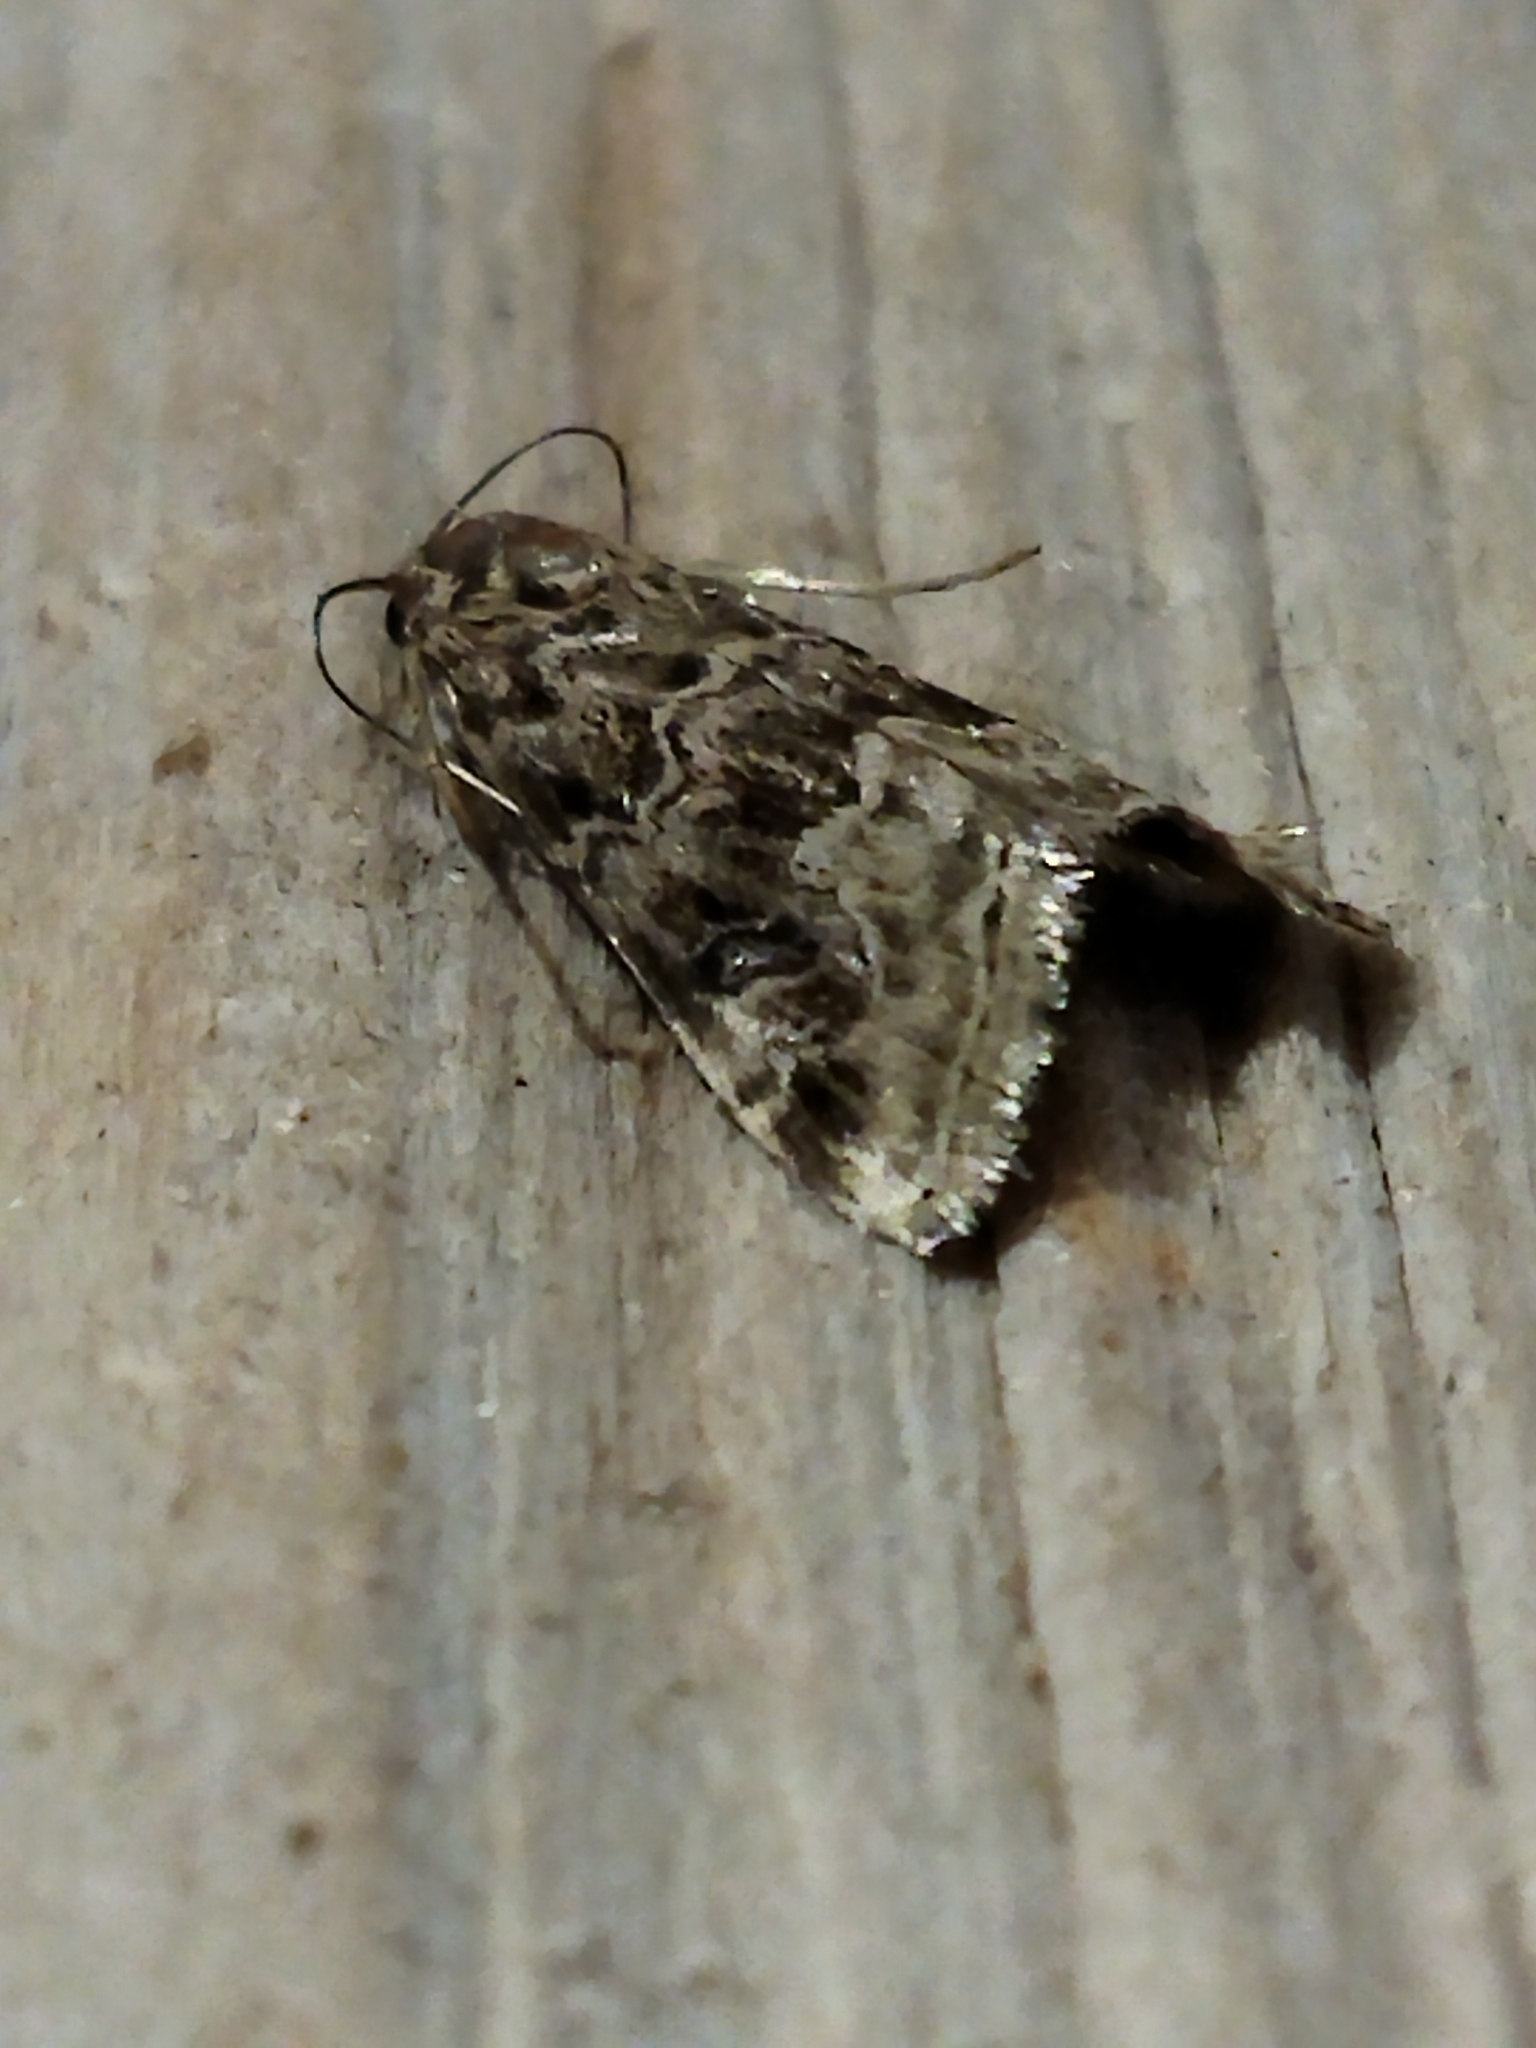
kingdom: Animalia
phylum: Arthropoda
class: Insecta
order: Lepidoptera
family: Crambidae
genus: Hellula
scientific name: Hellula undalis
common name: Cabbage webworm
